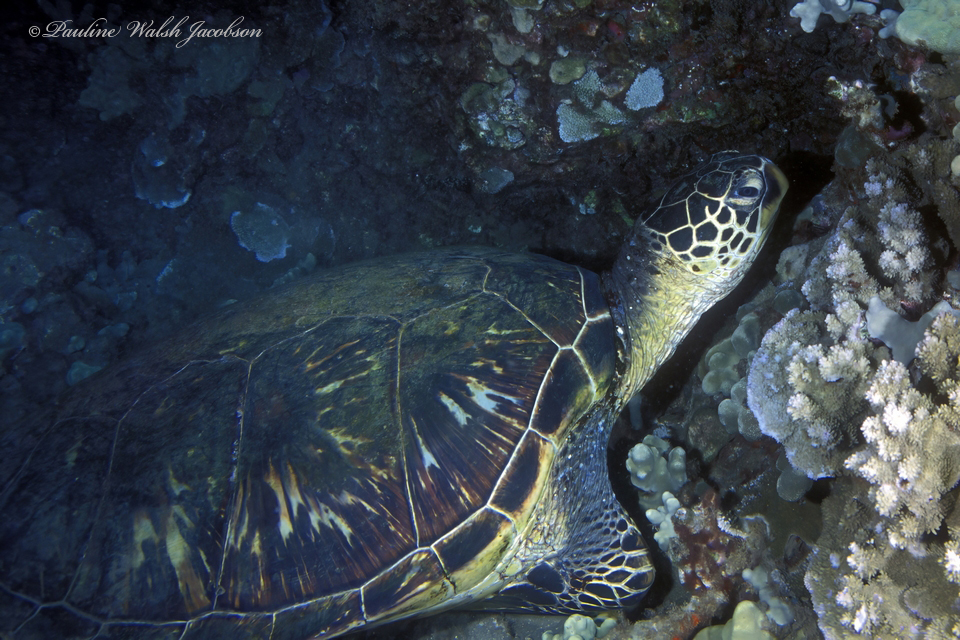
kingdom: Animalia
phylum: Chordata
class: Testudines
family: Cheloniidae
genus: Chelonia
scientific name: Chelonia mydas
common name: Green turtle
